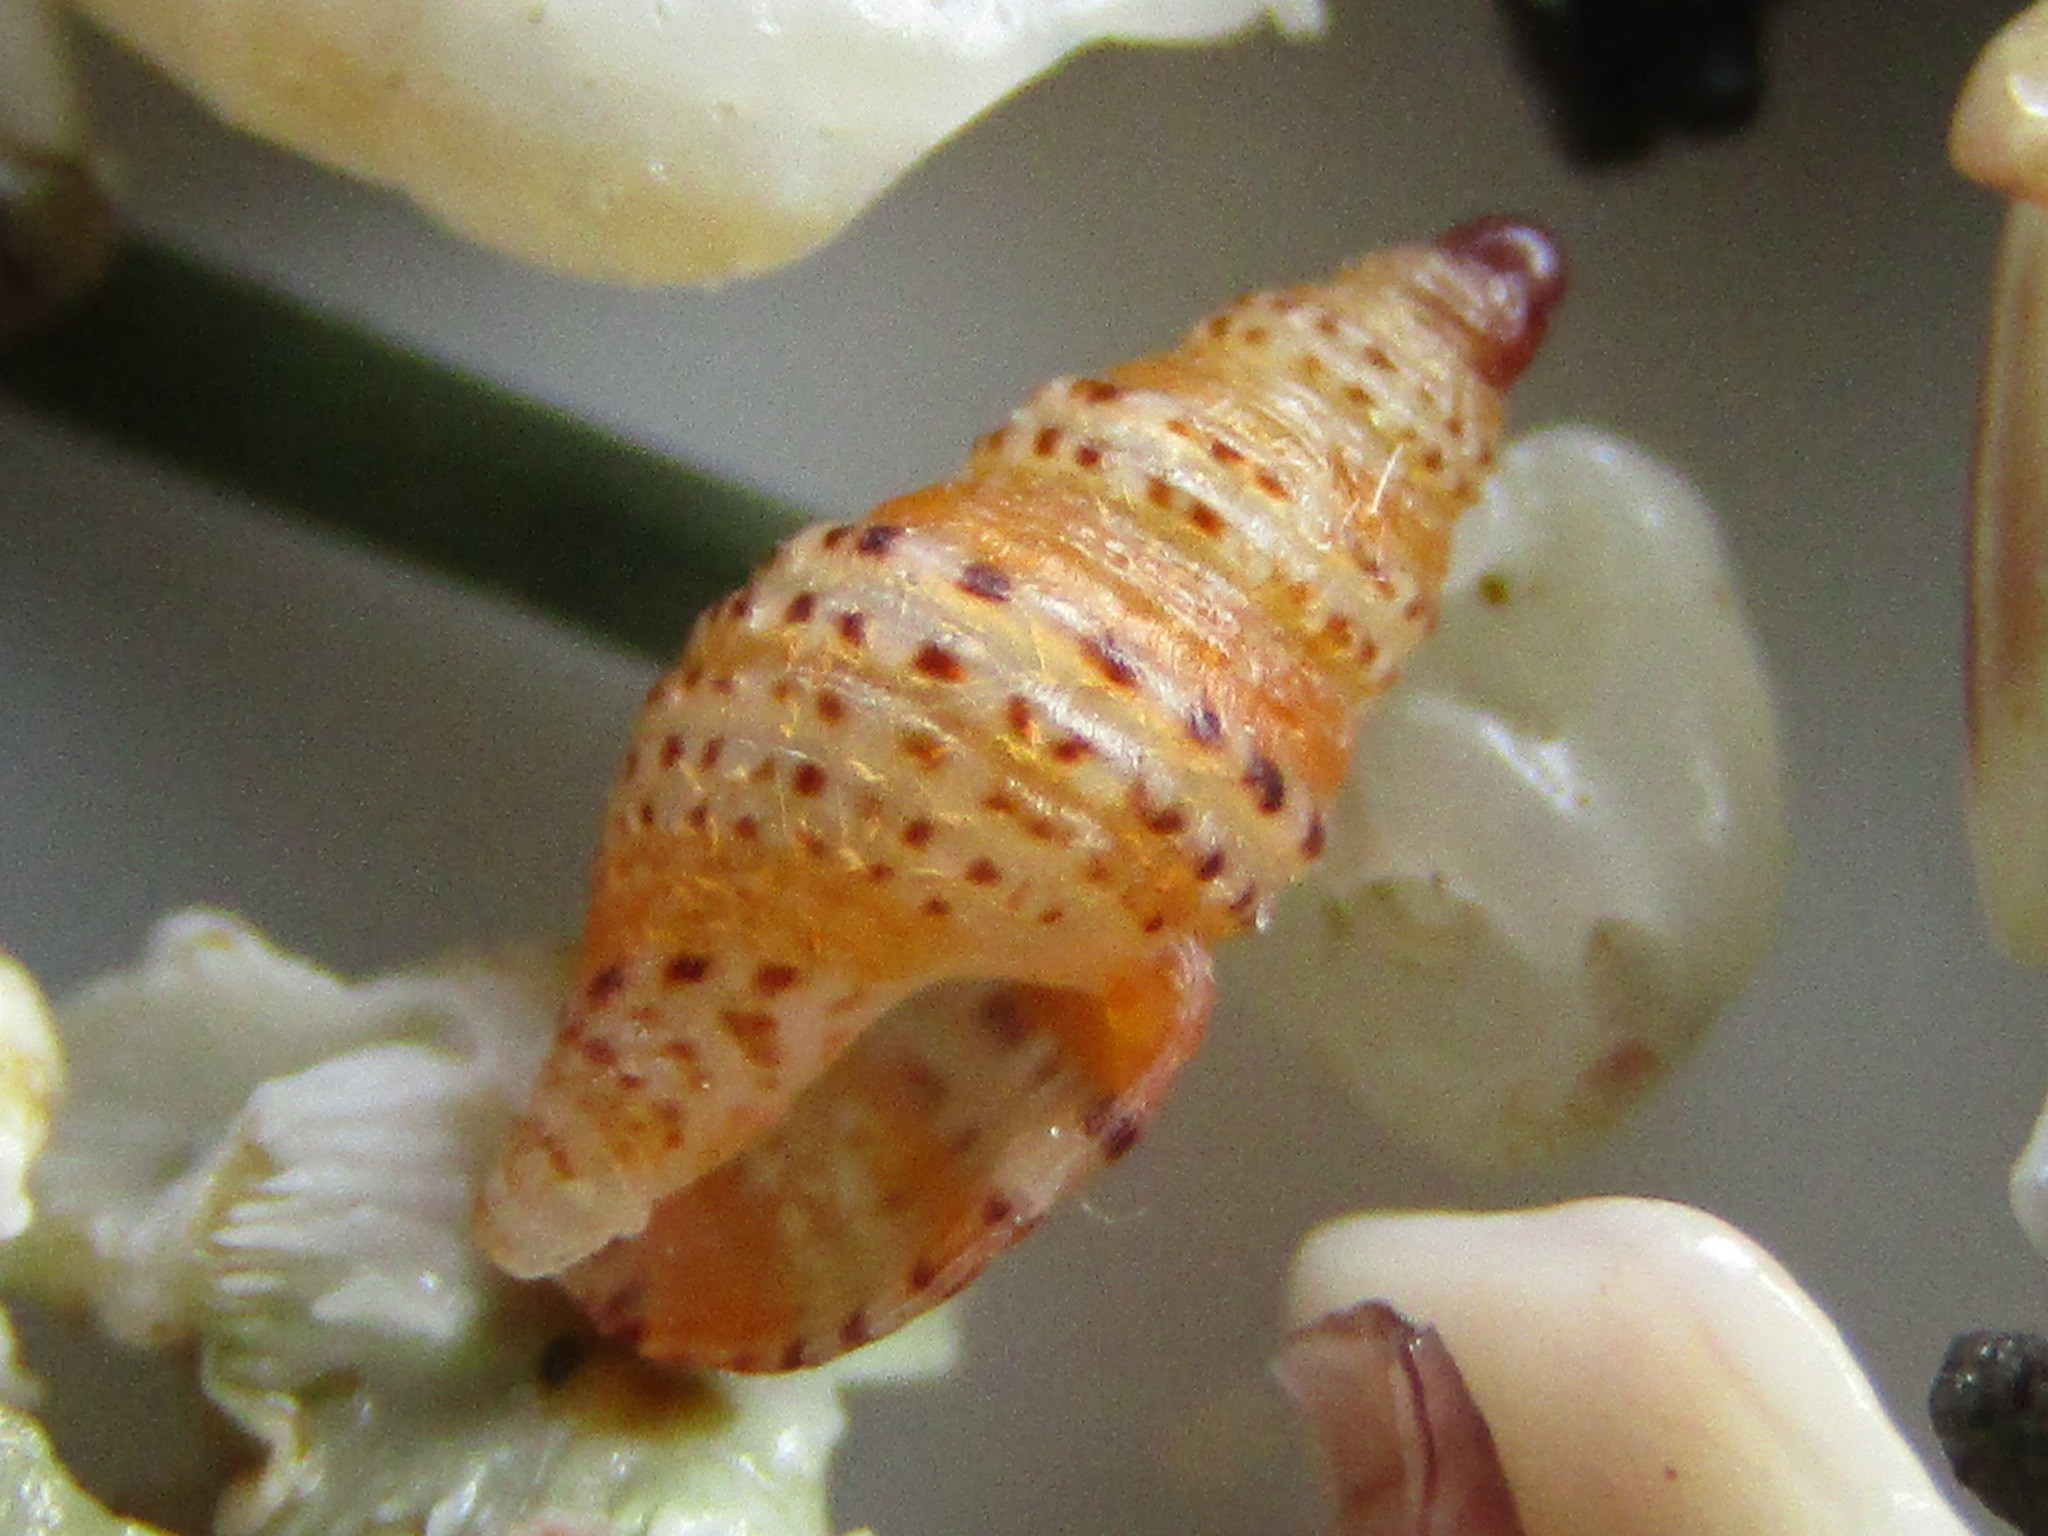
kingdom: Animalia
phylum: Mollusca
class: Gastropoda
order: Neogastropoda
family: Columbellidae
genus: Liratilia
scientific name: Liratilia compta
